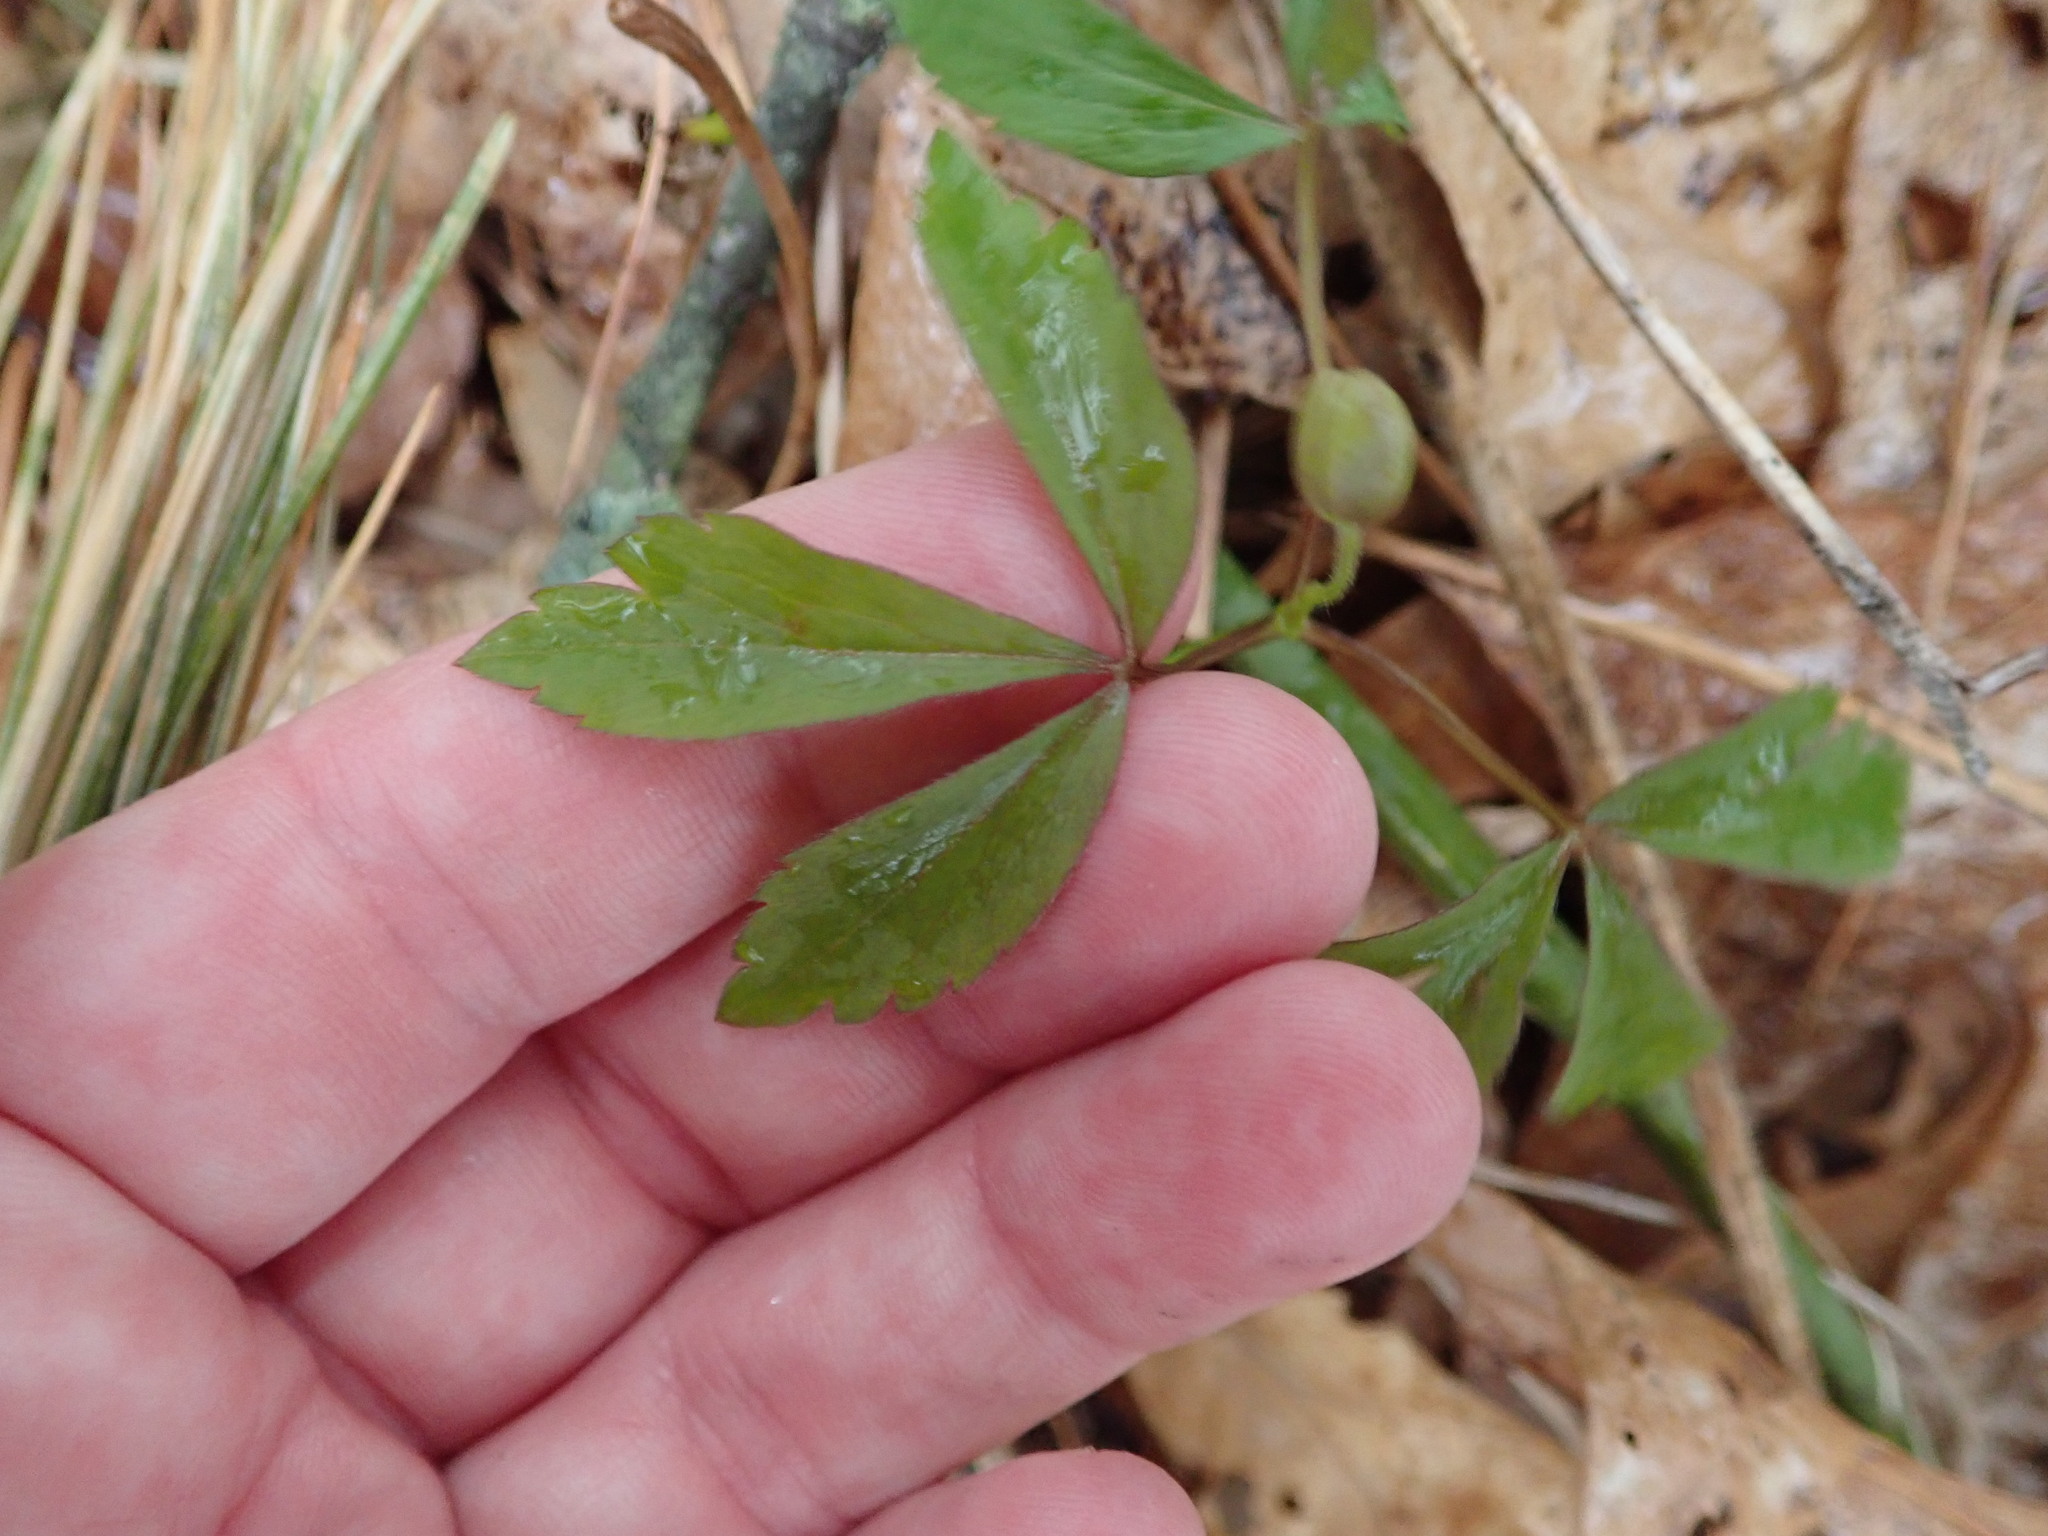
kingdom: Plantae
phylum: Tracheophyta
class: Magnoliopsida
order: Ranunculales
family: Ranunculaceae
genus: Anemone
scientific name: Anemone quinquefolia
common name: Wood anemone
